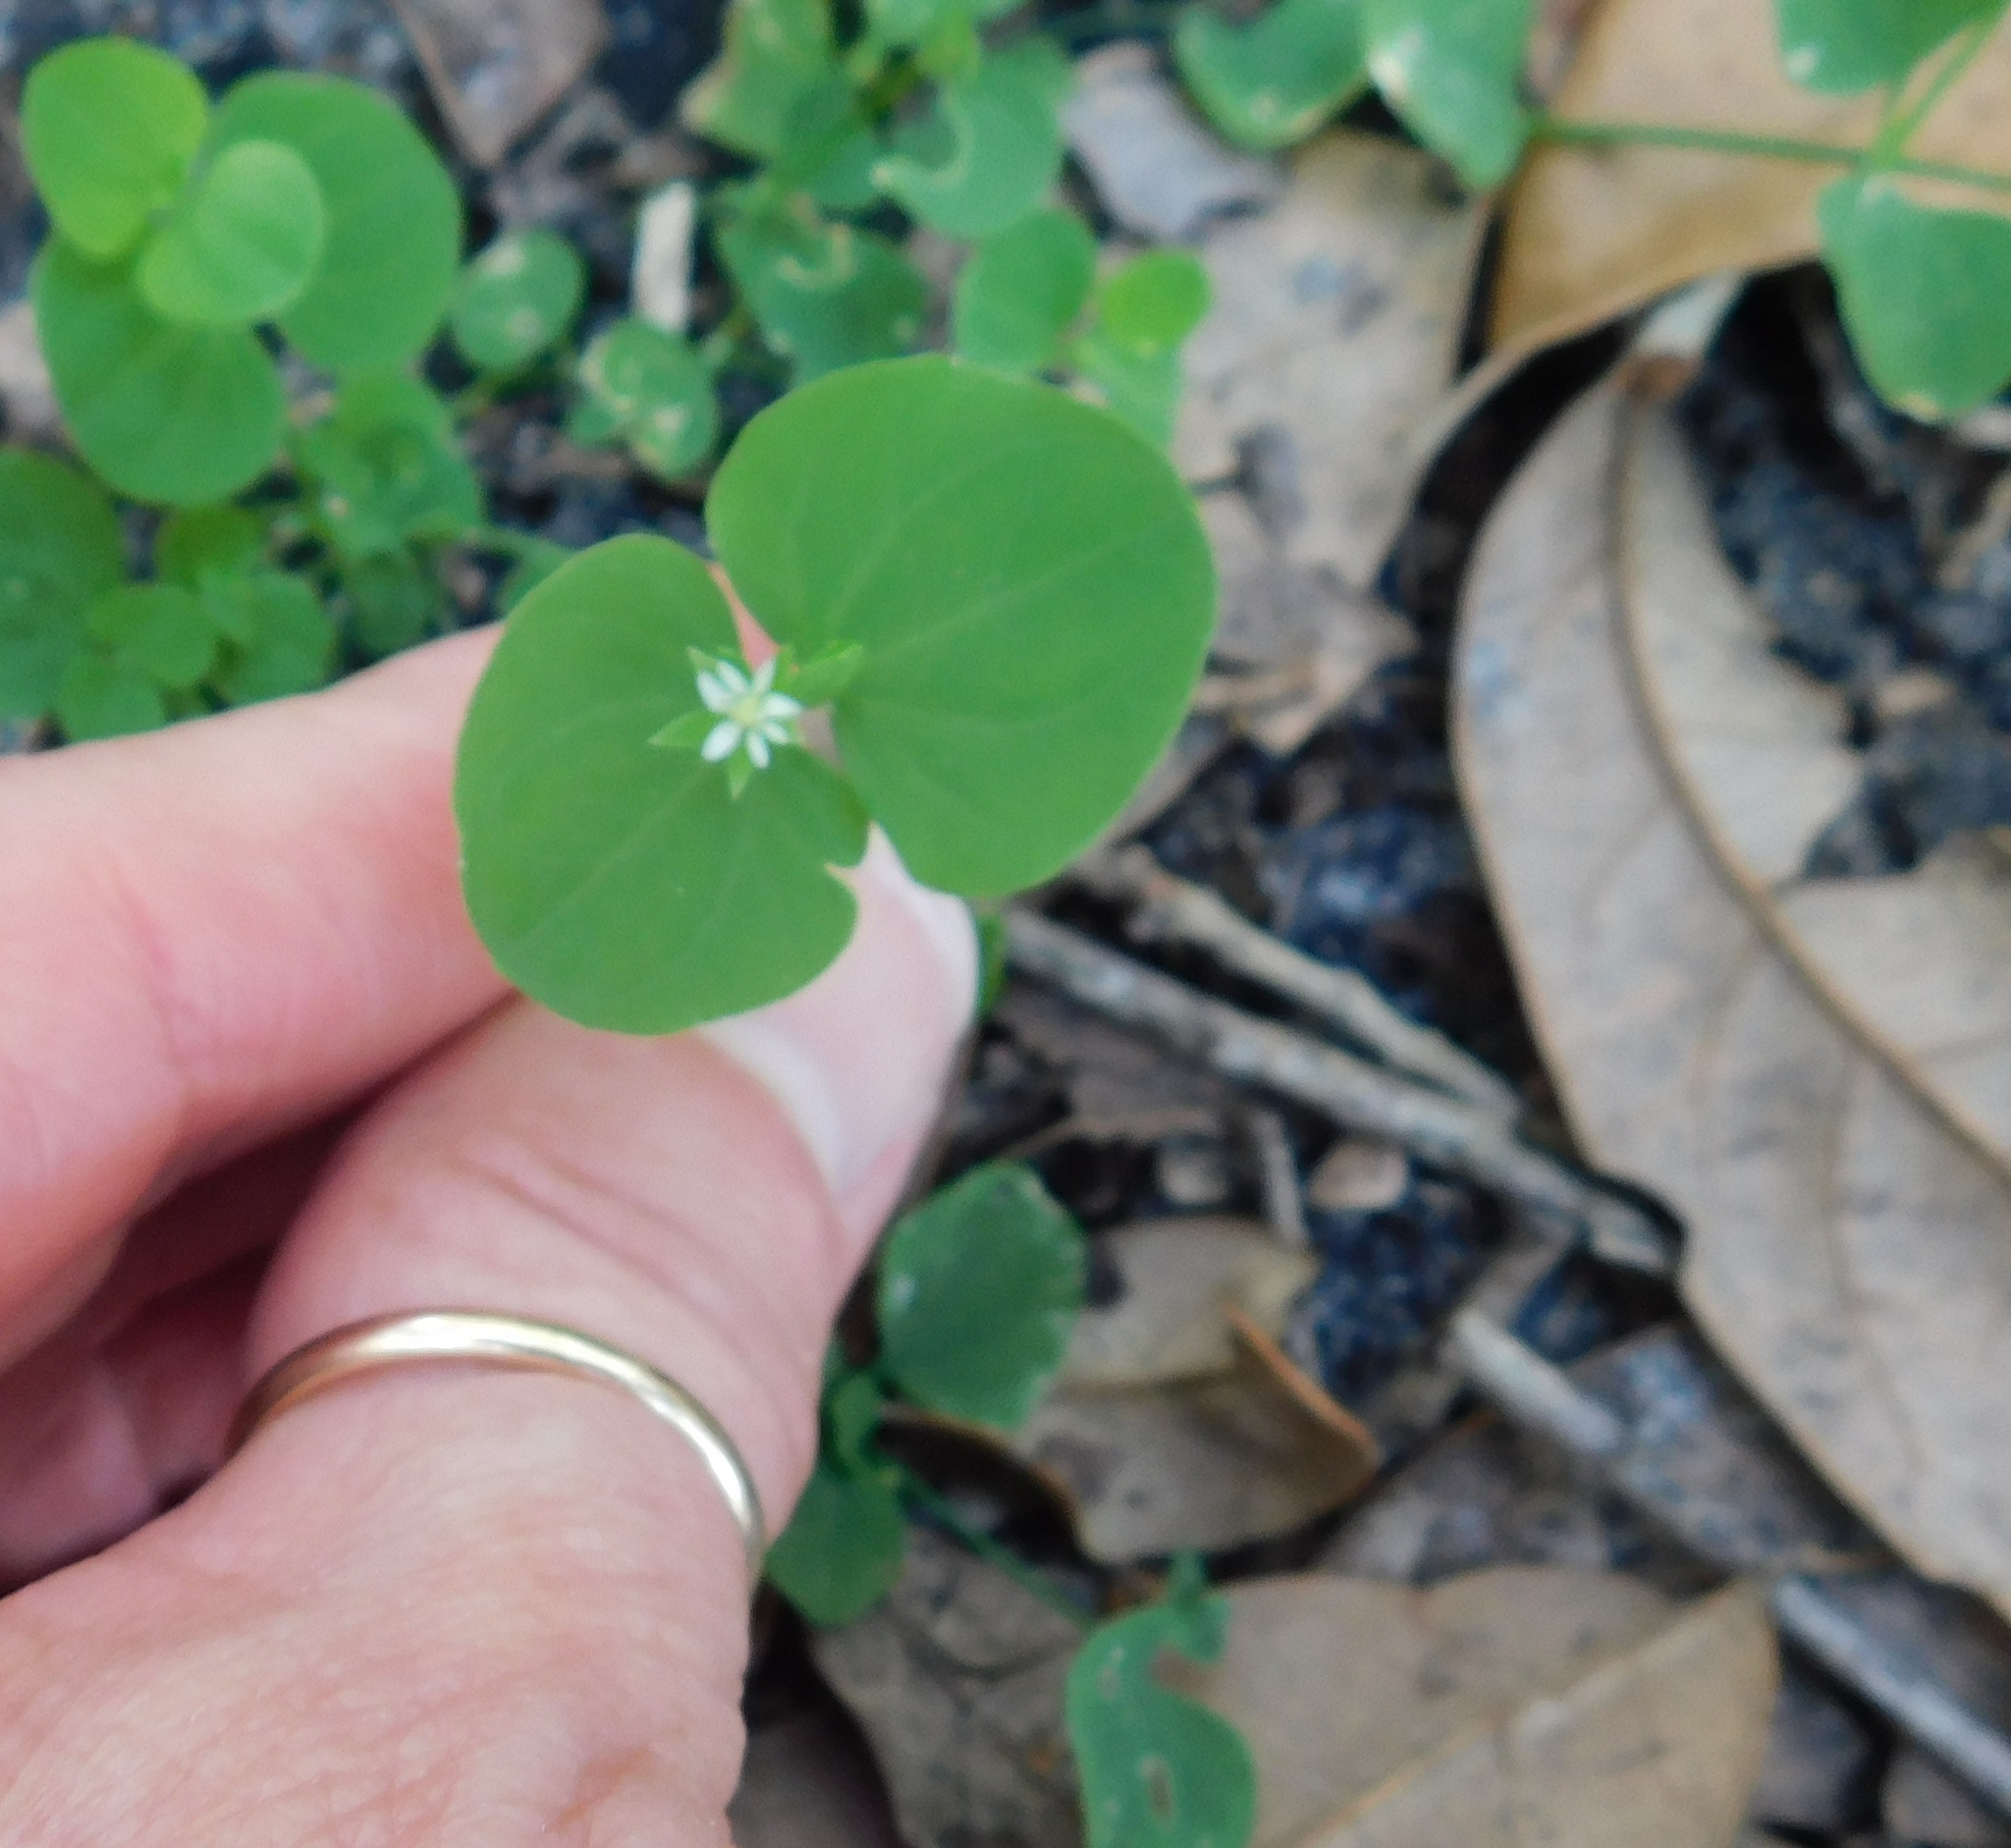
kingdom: Plantae
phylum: Tracheophyta
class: Magnoliopsida
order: Caryophyllales
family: Caryophyllaceae
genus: Drymaria
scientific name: Drymaria cordata
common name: Whitesnow
